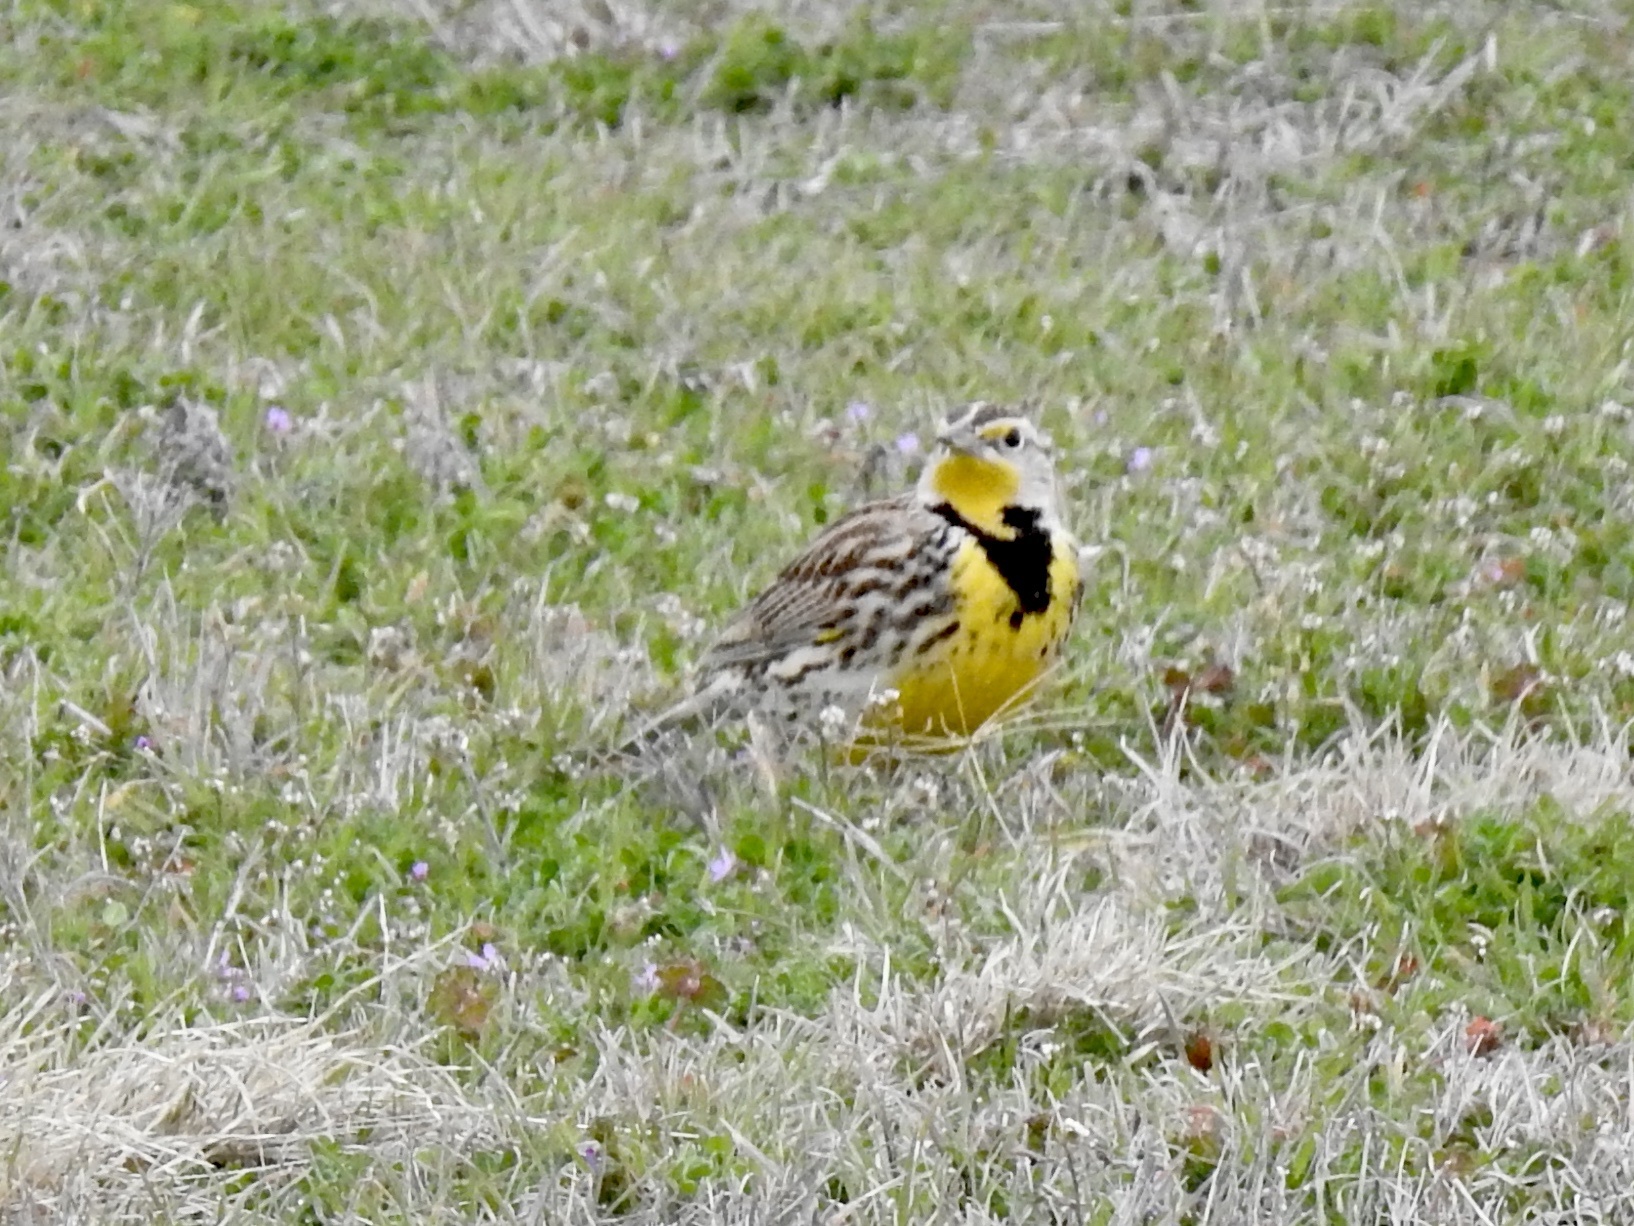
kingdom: Animalia
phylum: Chordata
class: Aves
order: Passeriformes
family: Icteridae
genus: Sturnella
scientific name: Sturnella neglecta
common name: Western meadowlark
